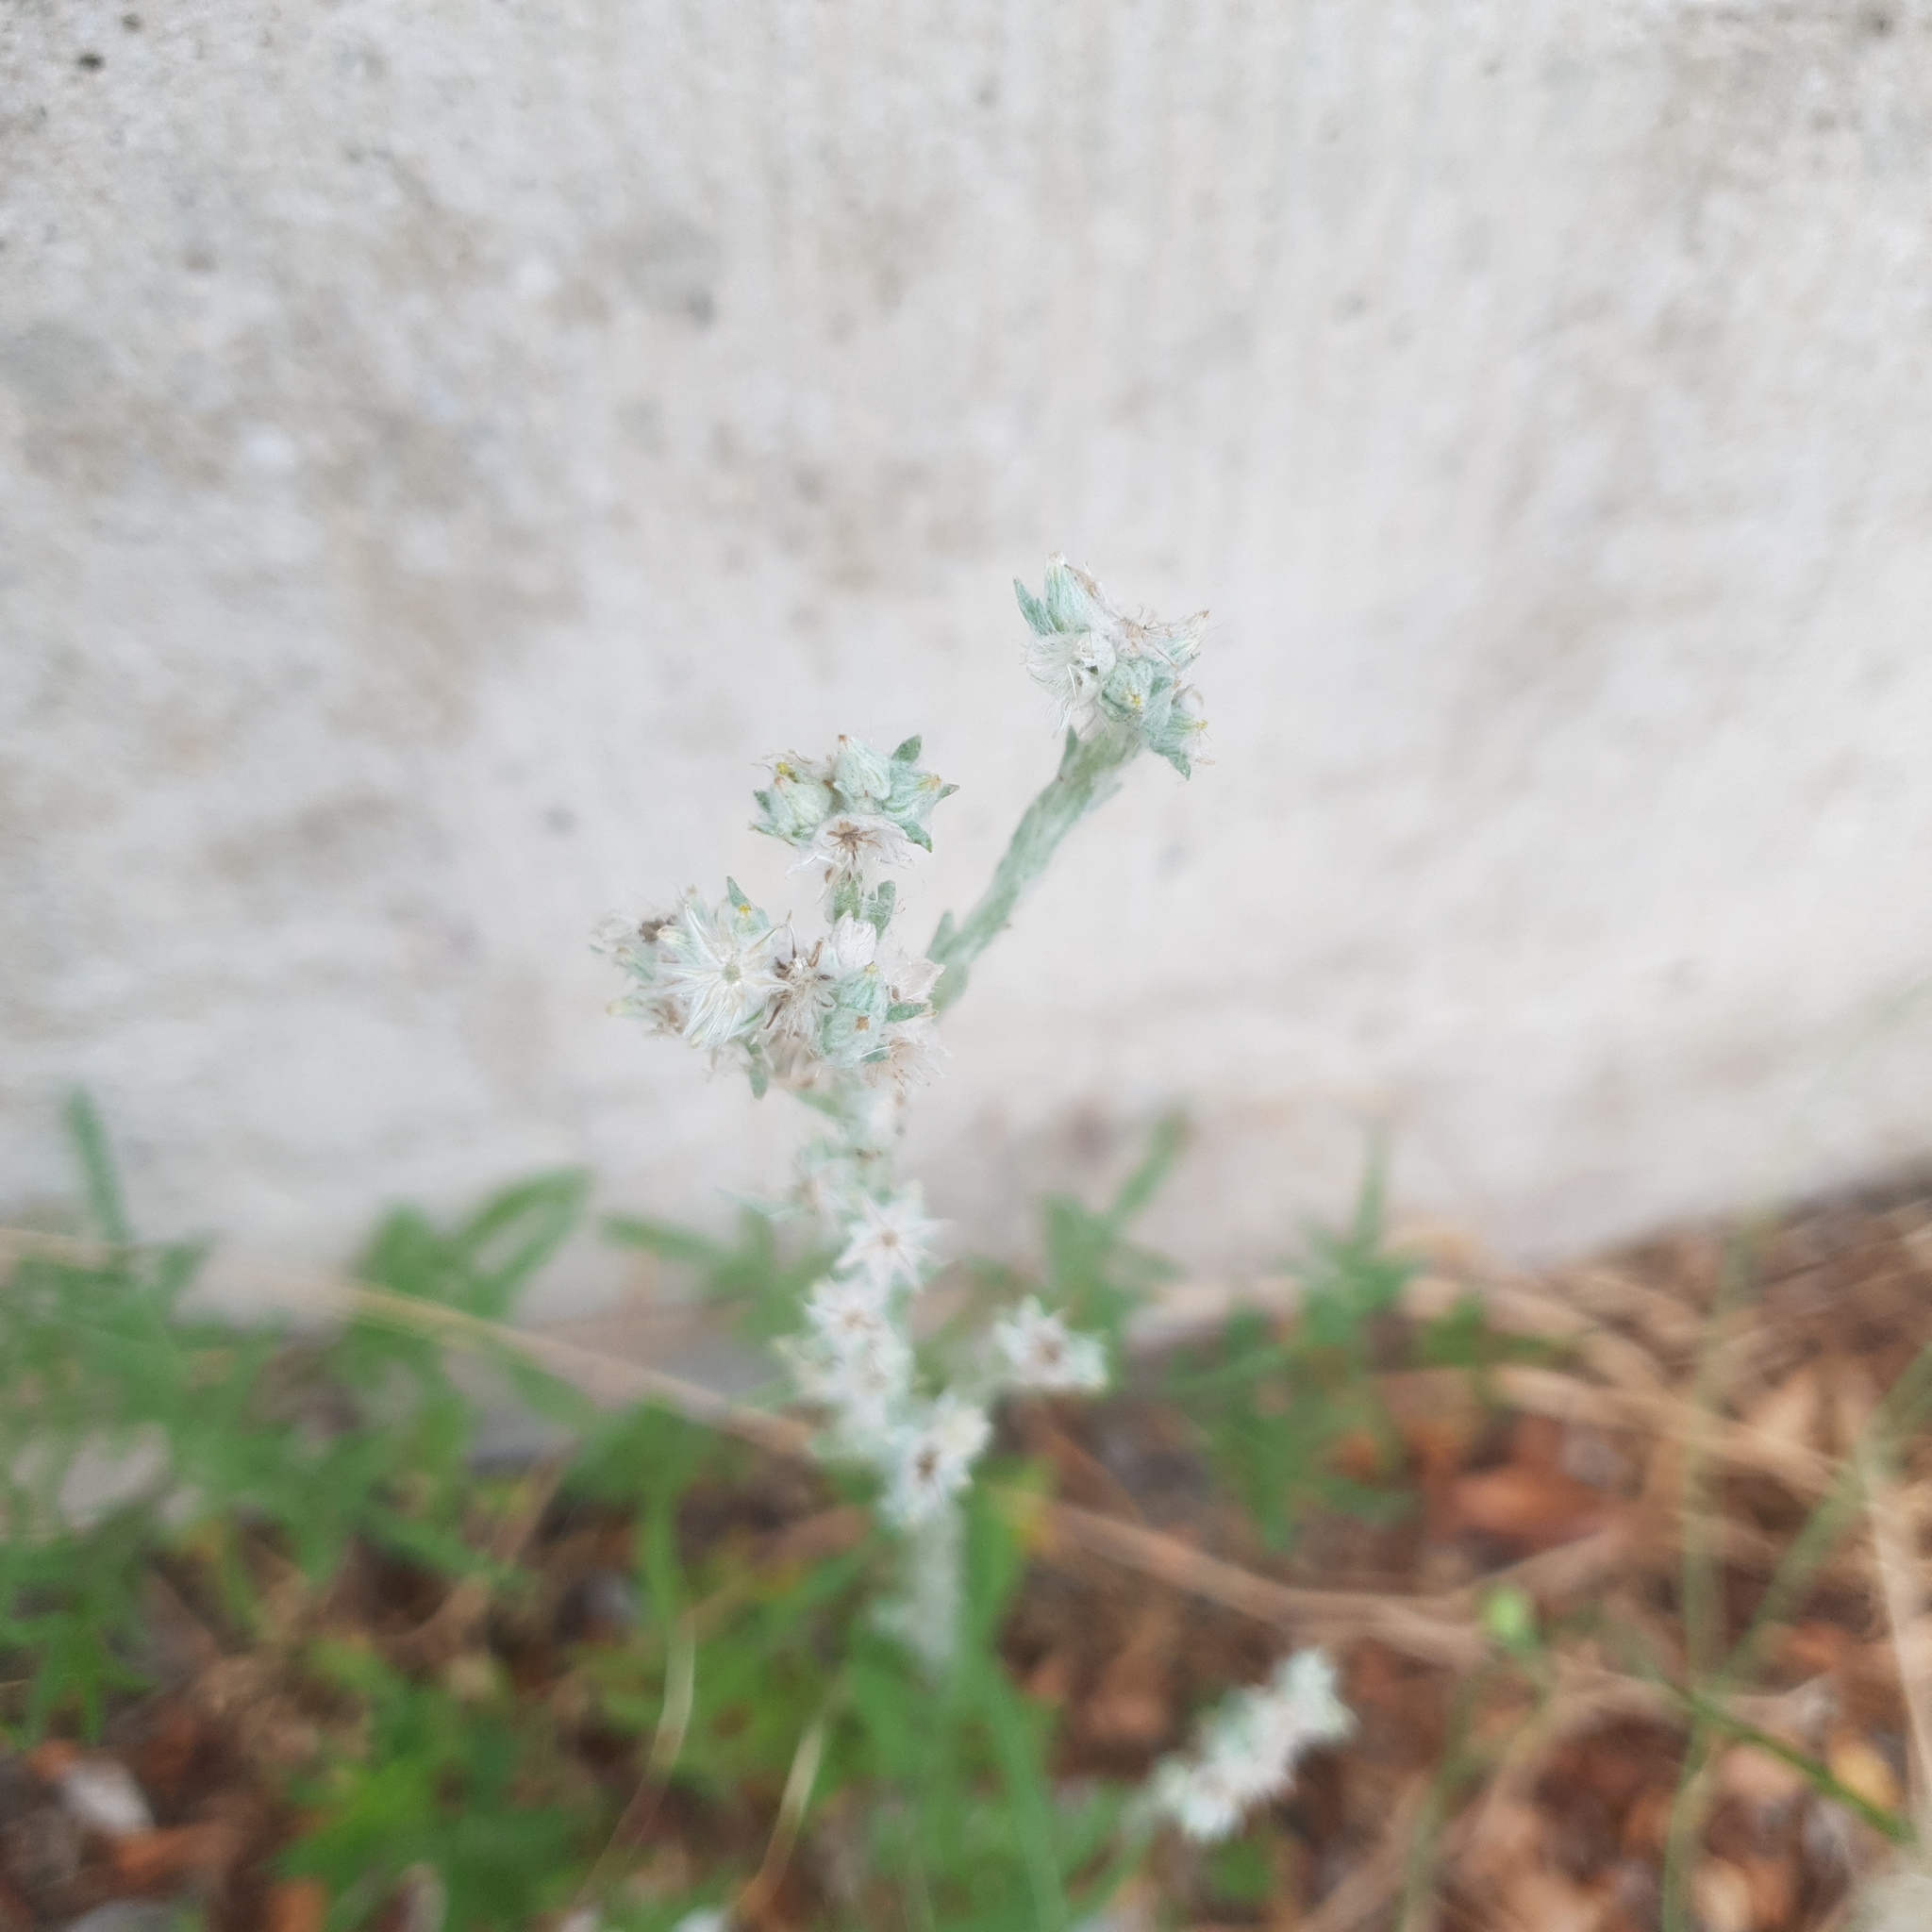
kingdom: Plantae
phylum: Tracheophyta
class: Magnoliopsida
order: Asterales
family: Asteraceae
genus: Filago
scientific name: Filago arvensis
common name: Field cudweed
